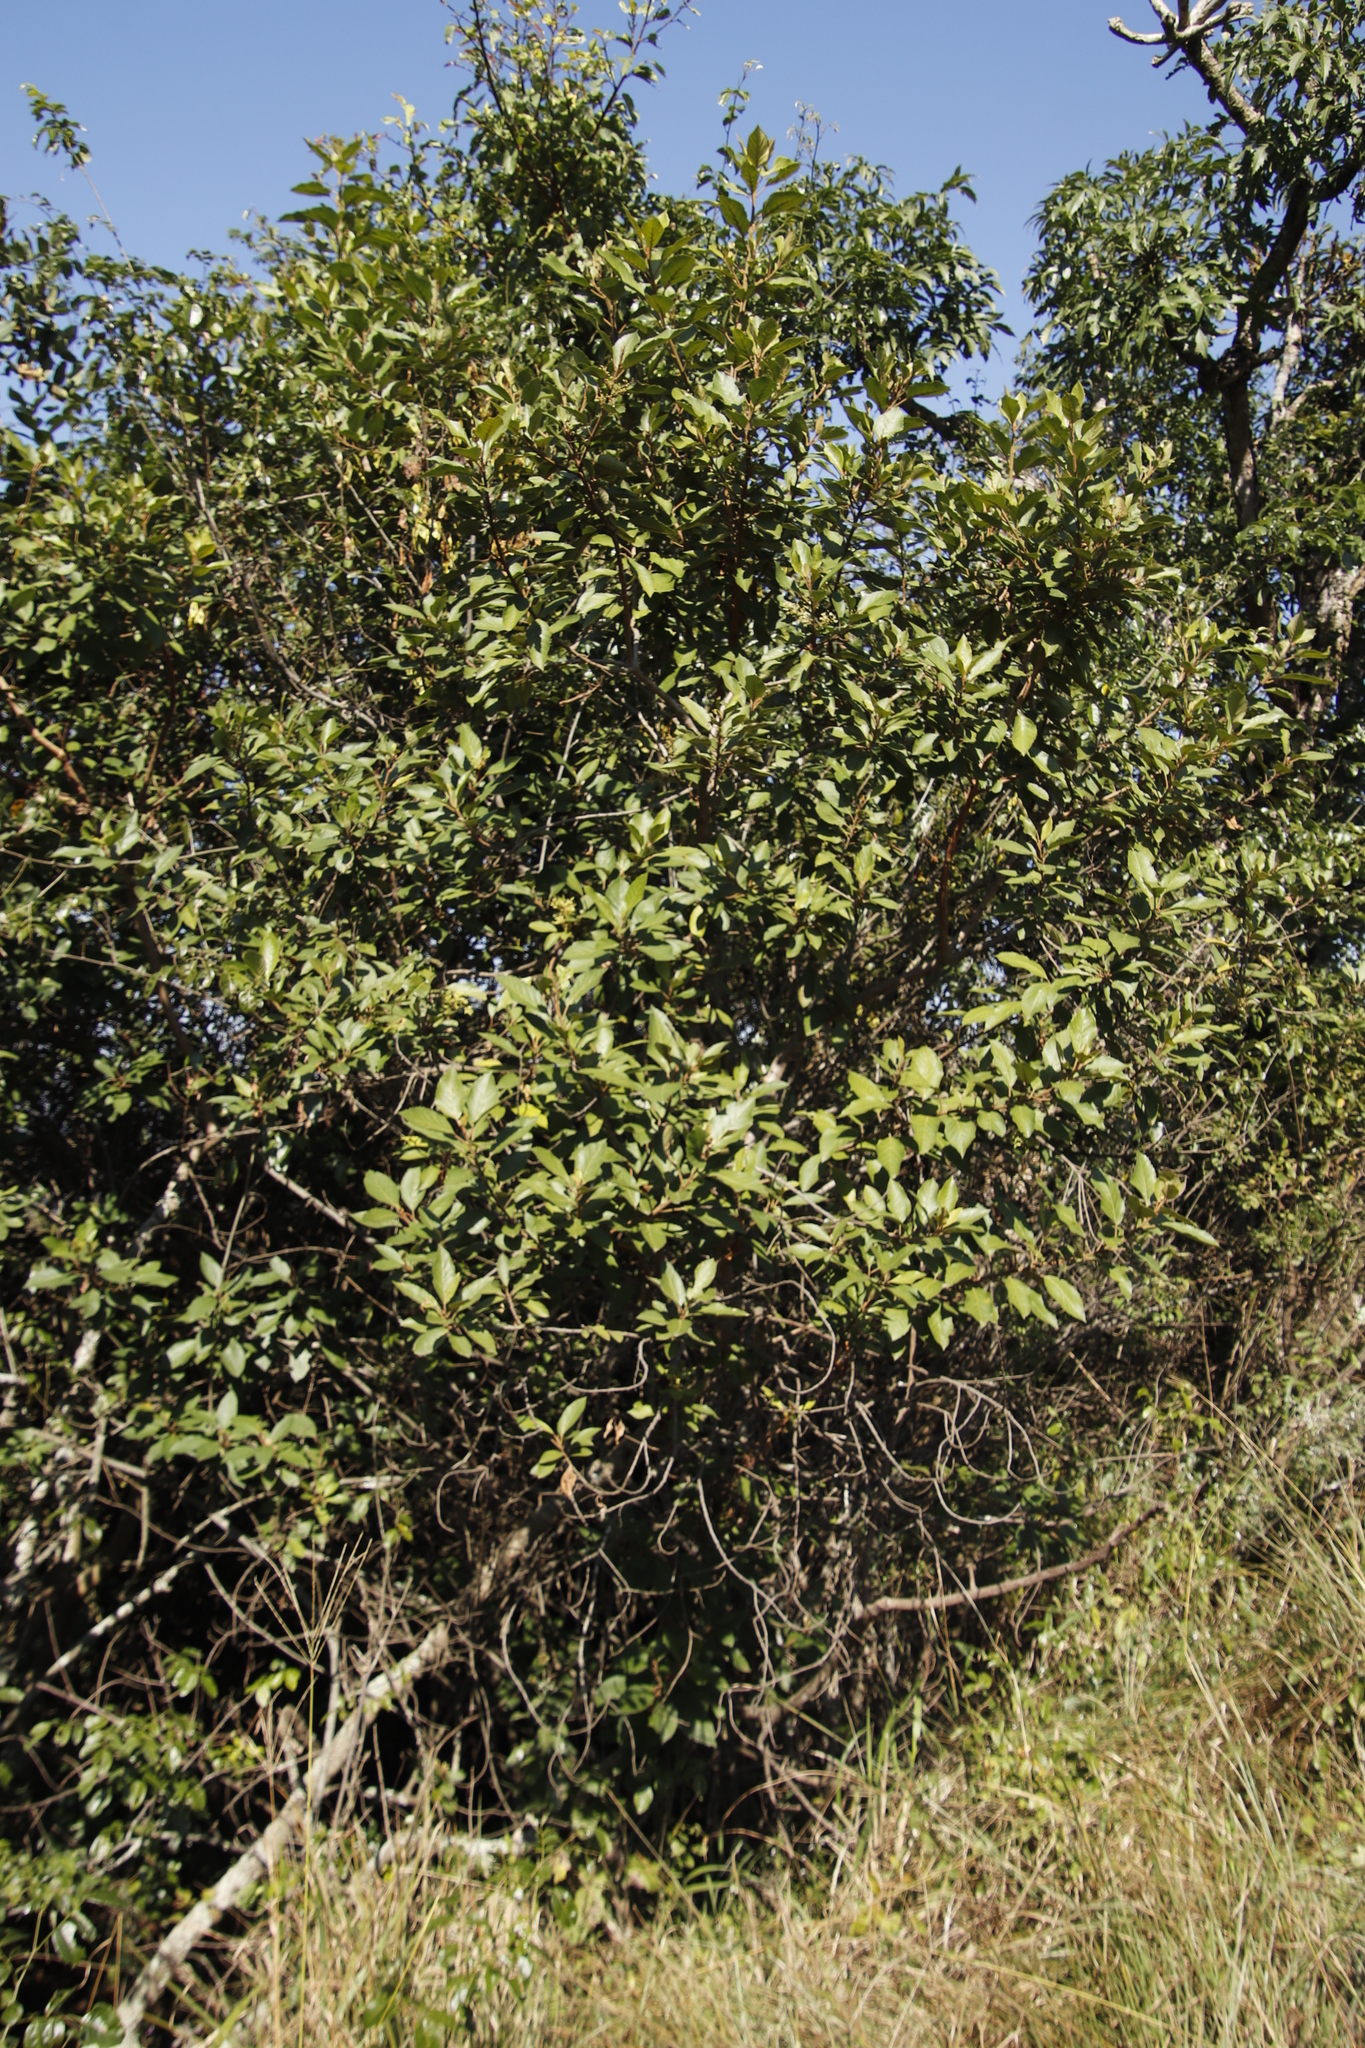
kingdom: Plantae
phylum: Tracheophyta
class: Magnoliopsida
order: Ericales
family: Primulaceae
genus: Maesa
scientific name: Maesa lanceolata
